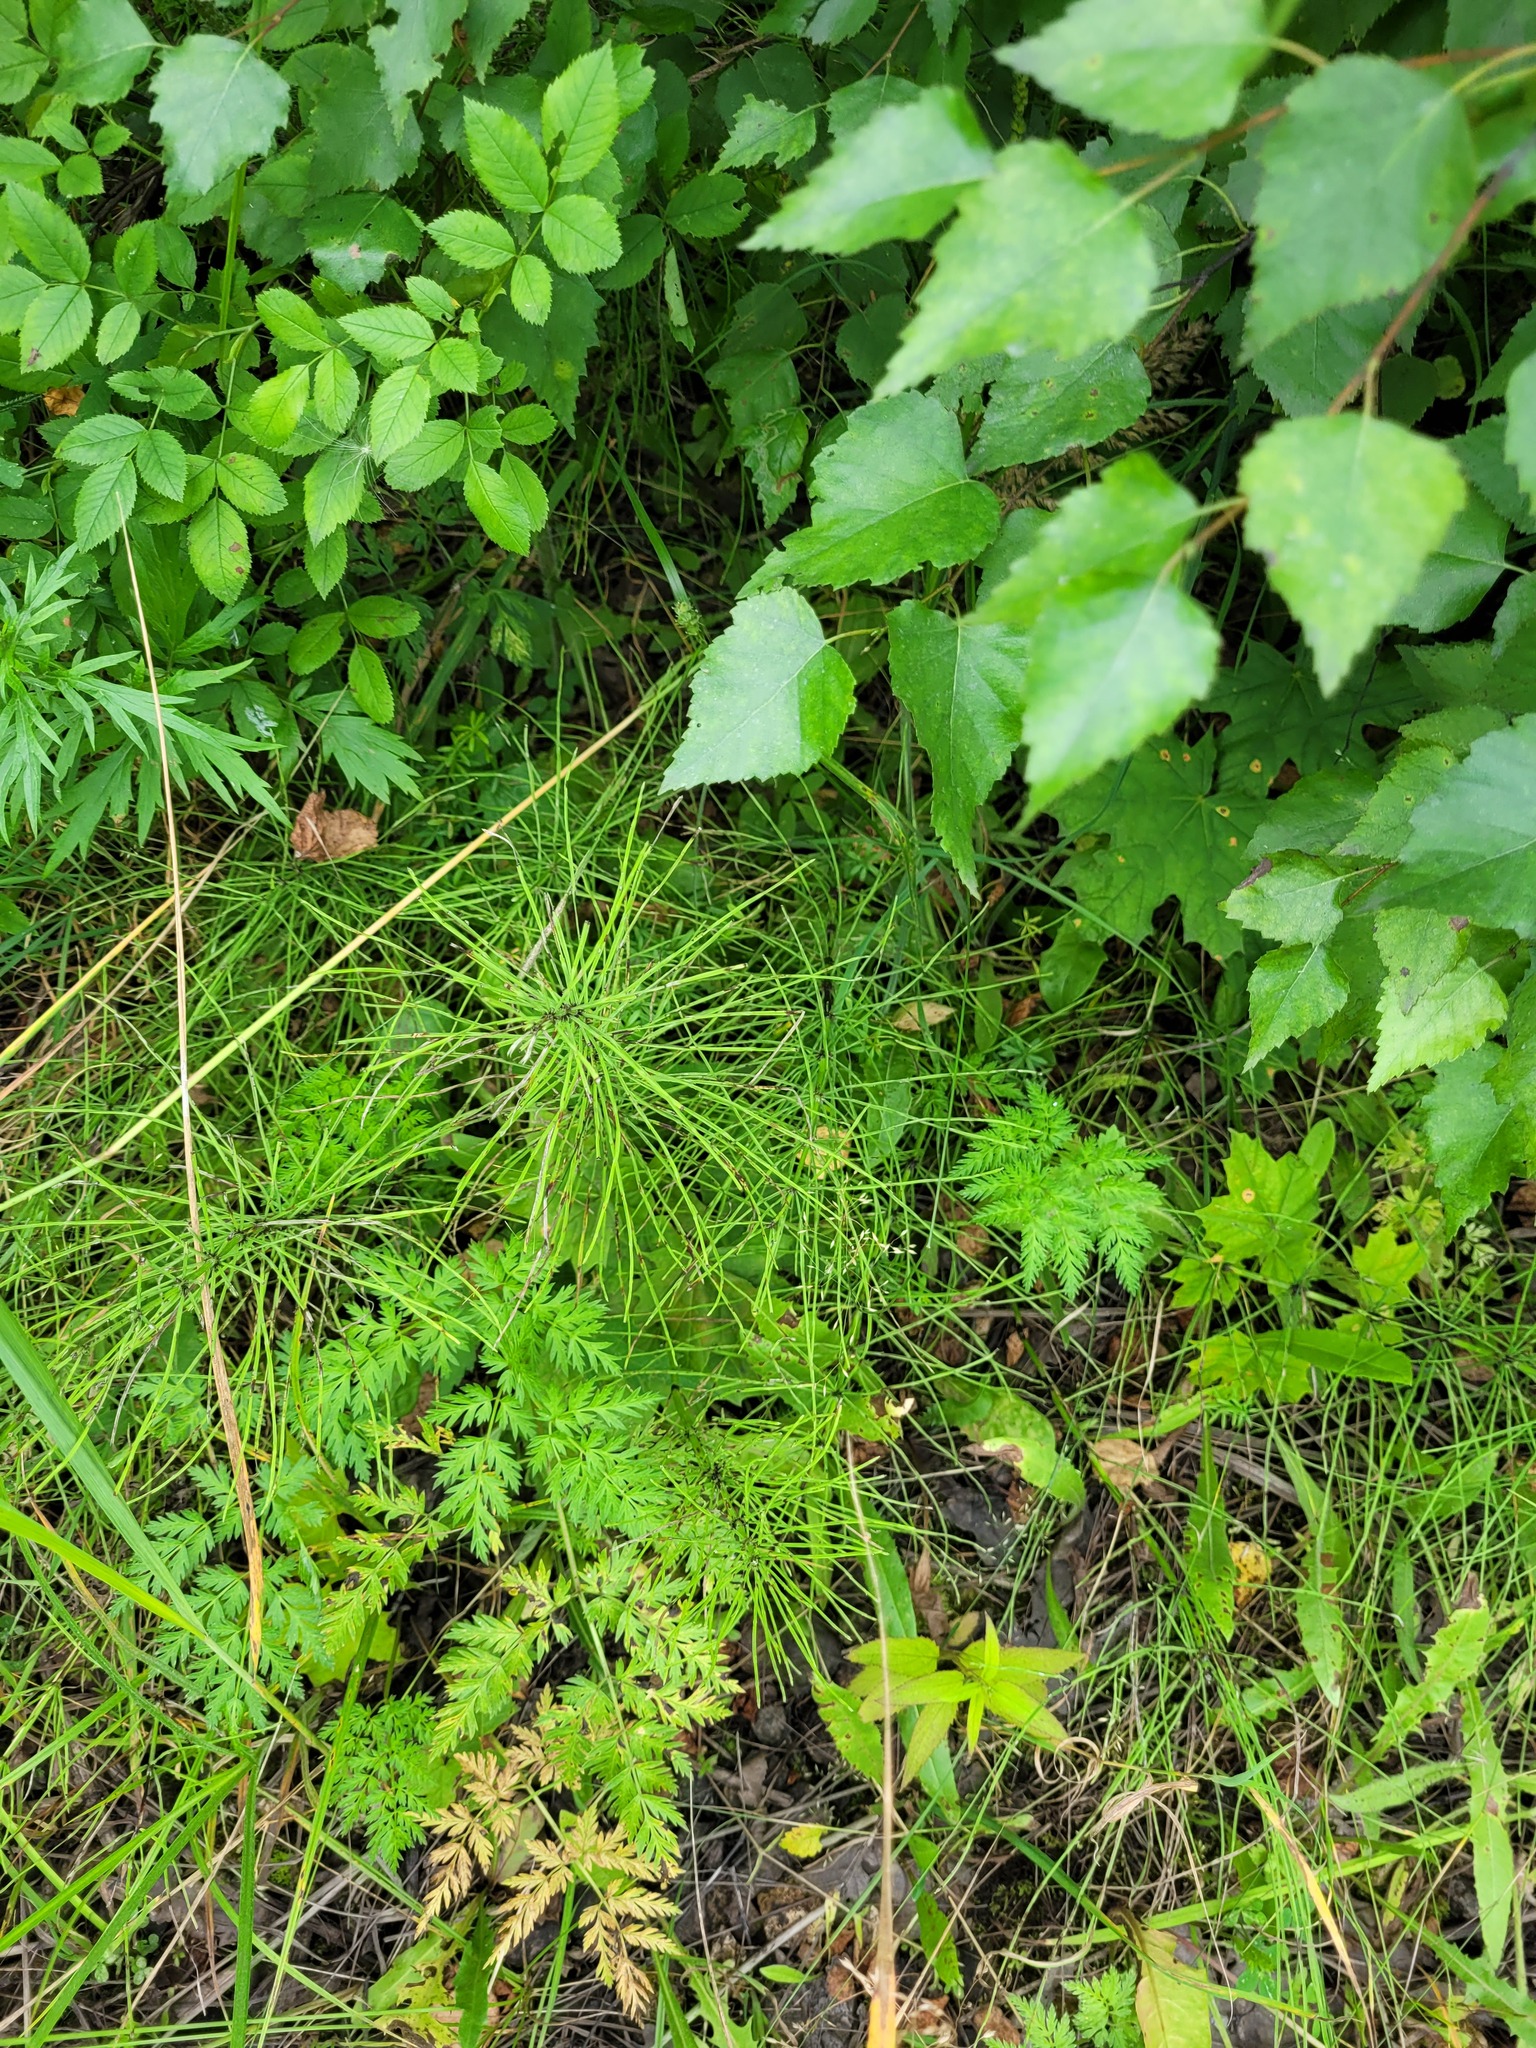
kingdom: Plantae
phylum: Tracheophyta
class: Polypodiopsida
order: Equisetales
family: Equisetaceae
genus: Equisetum
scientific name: Equisetum pratense
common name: Meadow horsetail
